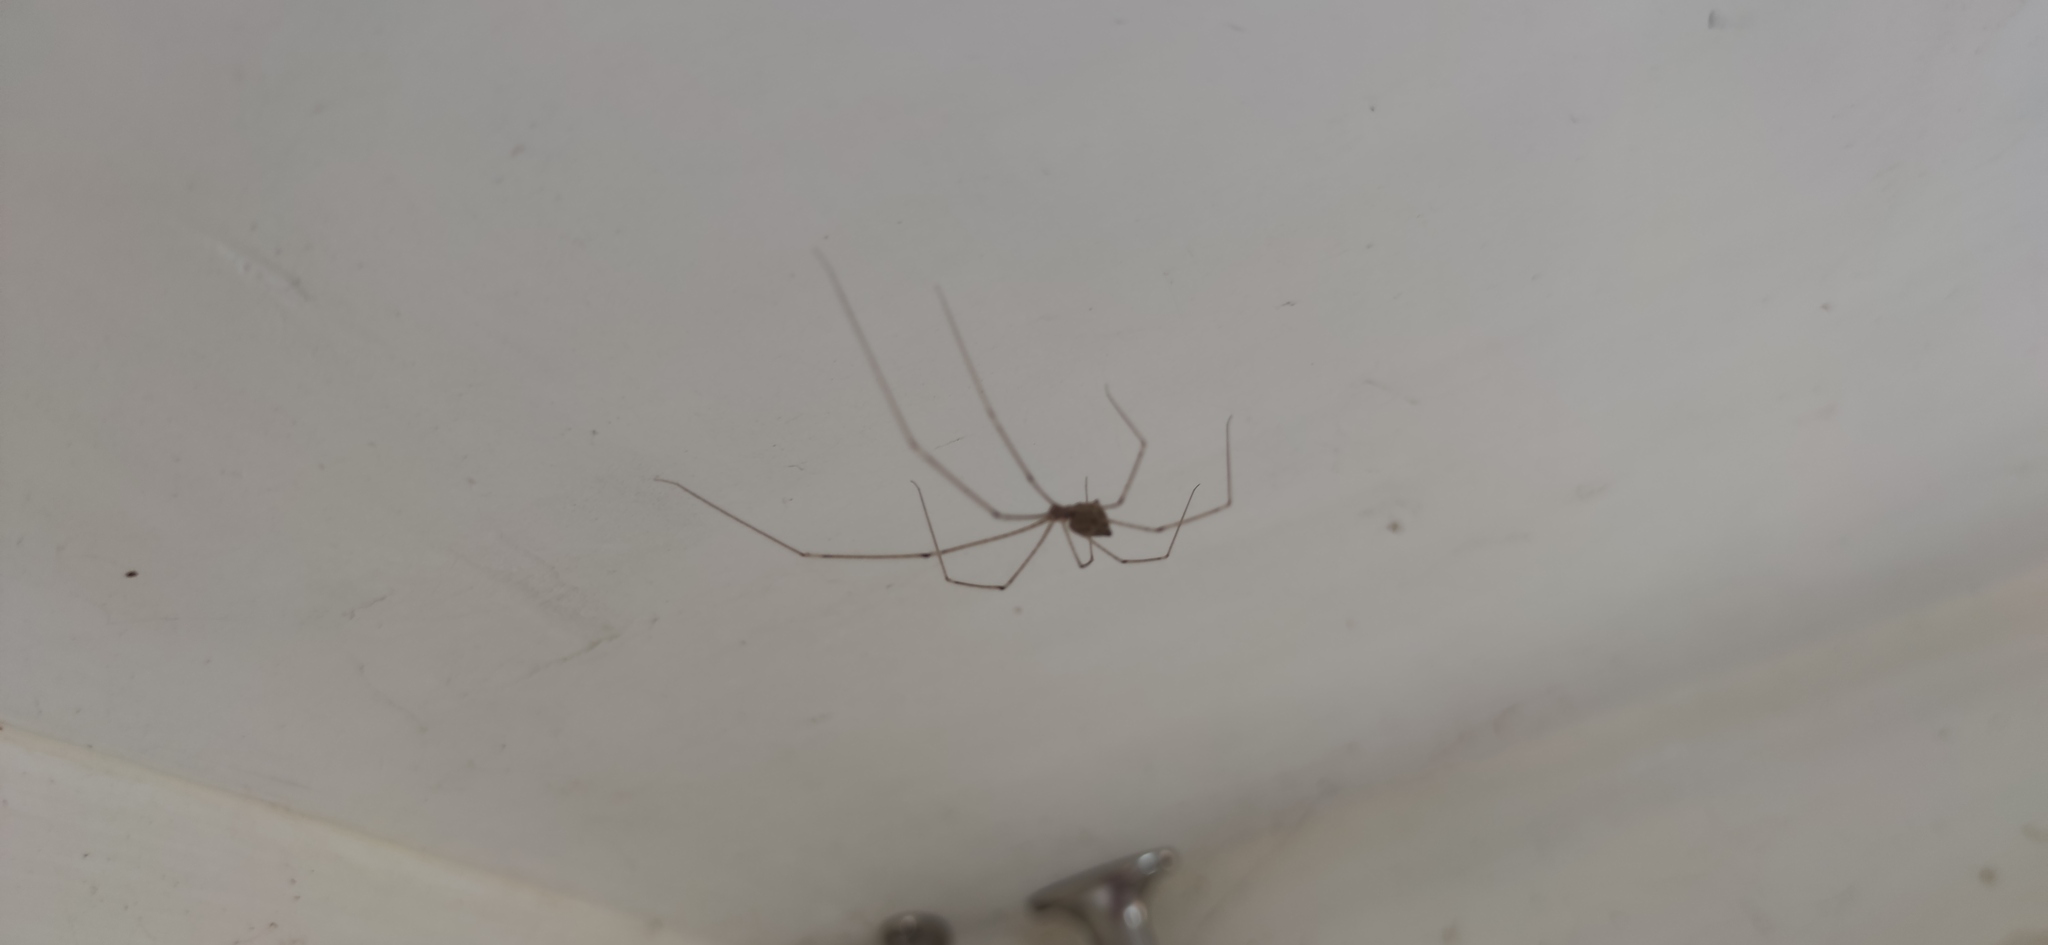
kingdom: Animalia
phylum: Arthropoda
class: Arachnida
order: Araneae
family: Pholcidae
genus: Crossopriza
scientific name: Crossopriza lyoni
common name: Cellar spiders
